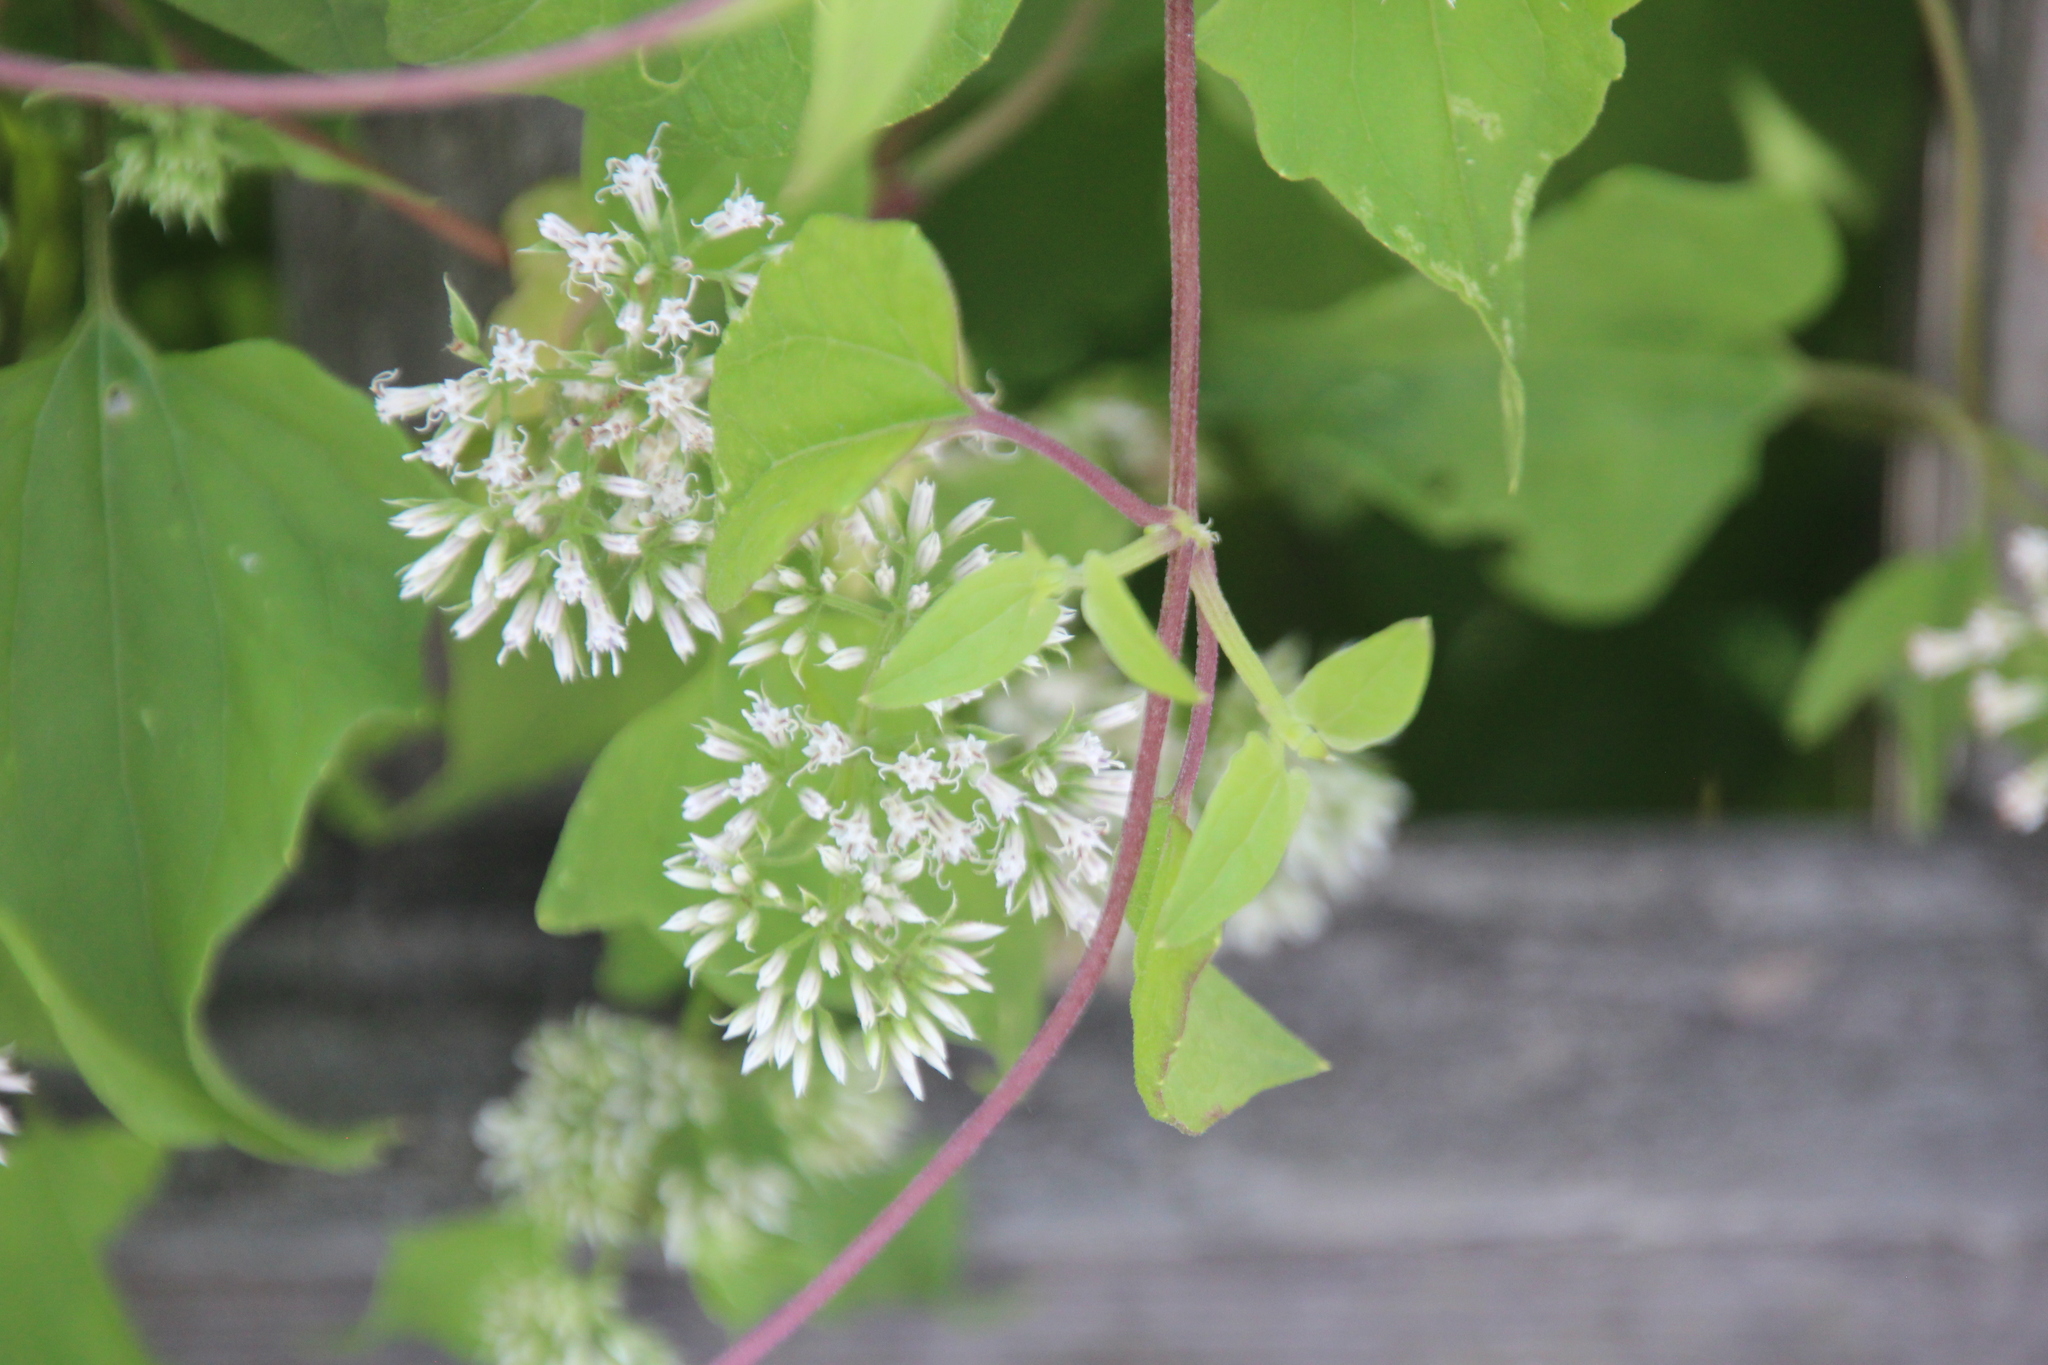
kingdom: Plantae
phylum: Tracheophyta
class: Magnoliopsida
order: Asterales
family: Asteraceae
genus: Mikania
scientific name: Mikania scandens
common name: Climbing hempvine
